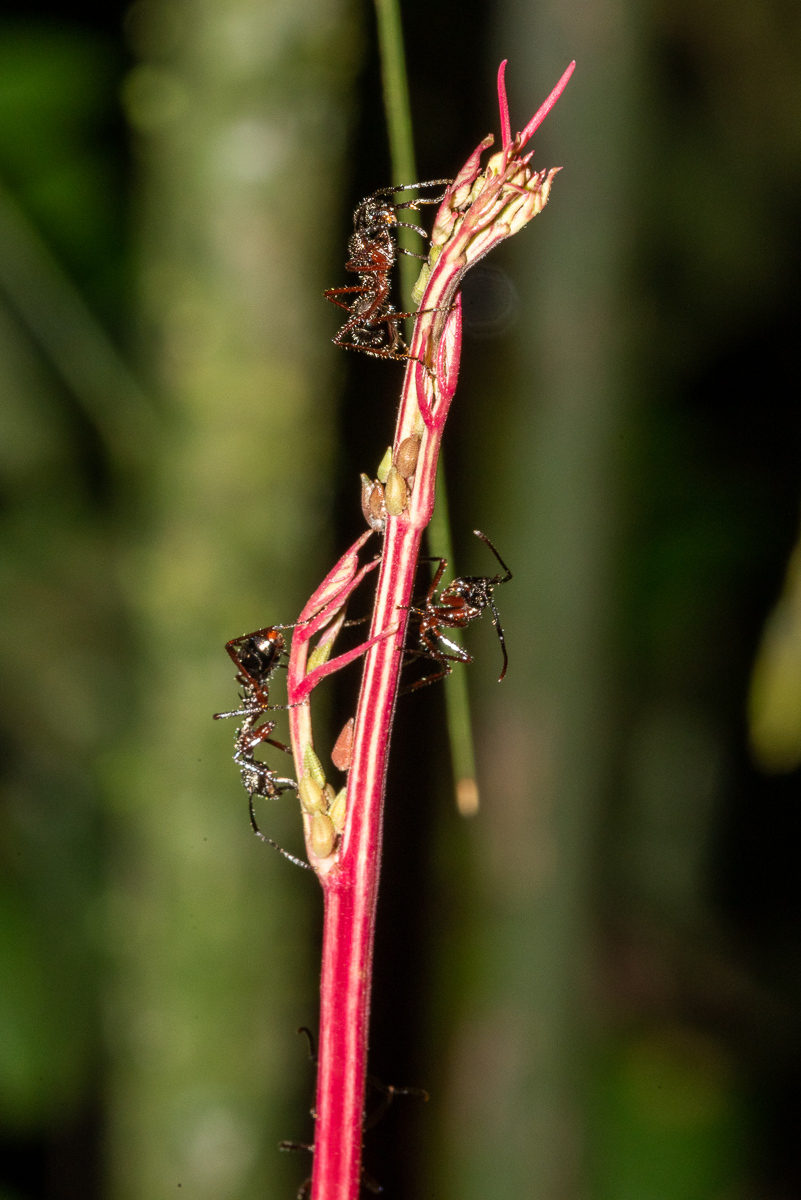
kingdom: Animalia
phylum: Arthropoda
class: Insecta
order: Hymenoptera
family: Formicidae
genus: Dolichoderus
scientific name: Dolichoderus attelaboides
